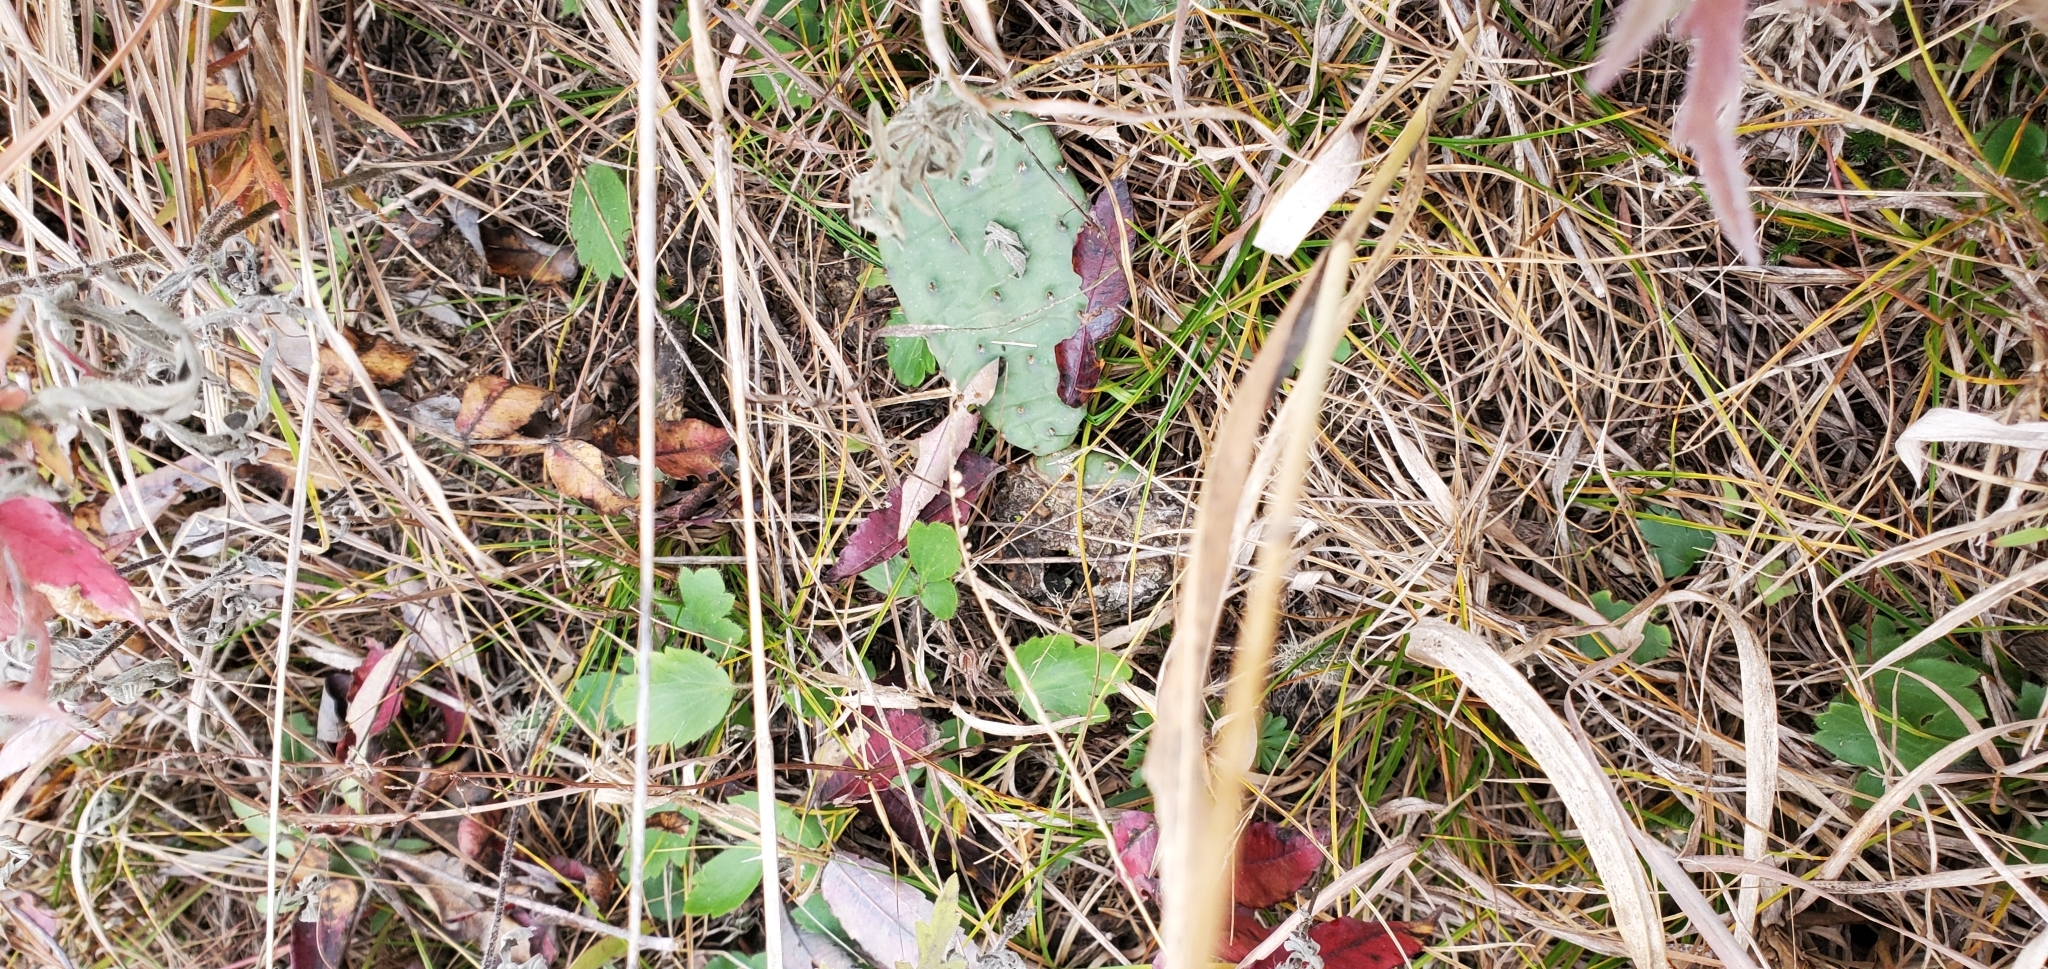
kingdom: Plantae
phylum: Tracheophyta
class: Magnoliopsida
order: Caryophyllales
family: Cactaceae
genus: Opuntia
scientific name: Opuntia humifusa
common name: Eastern prickly-pear
